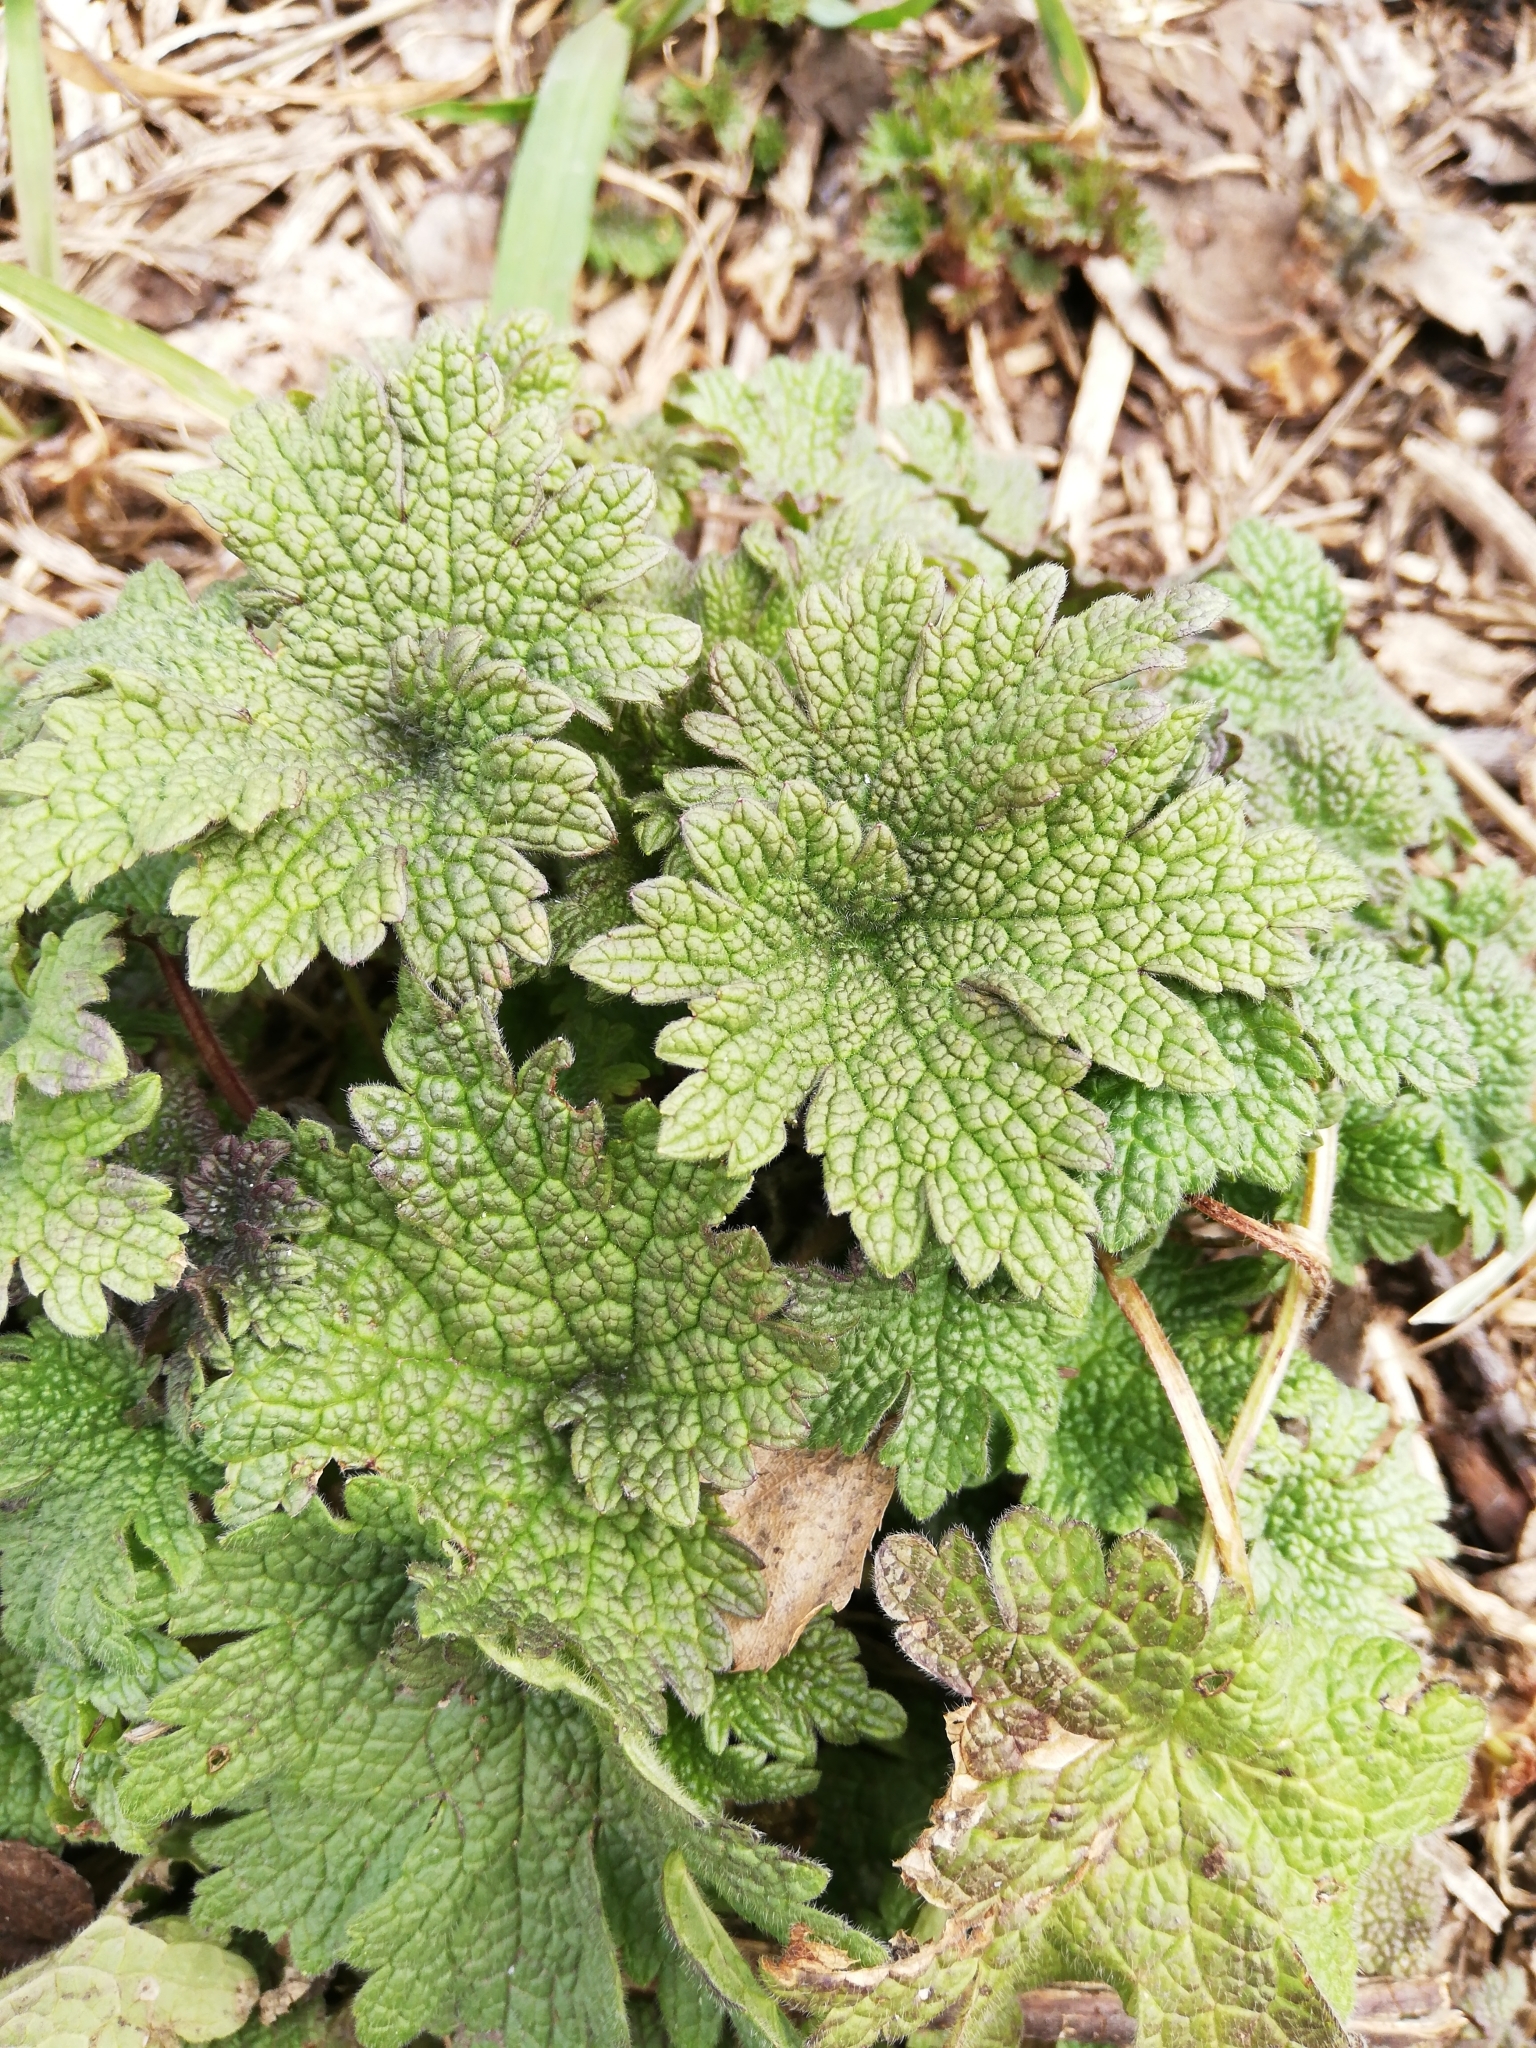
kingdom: Plantae
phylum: Tracheophyta
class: Magnoliopsida
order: Lamiales
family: Lamiaceae
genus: Leonurus
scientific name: Leonurus quinquelobatus
